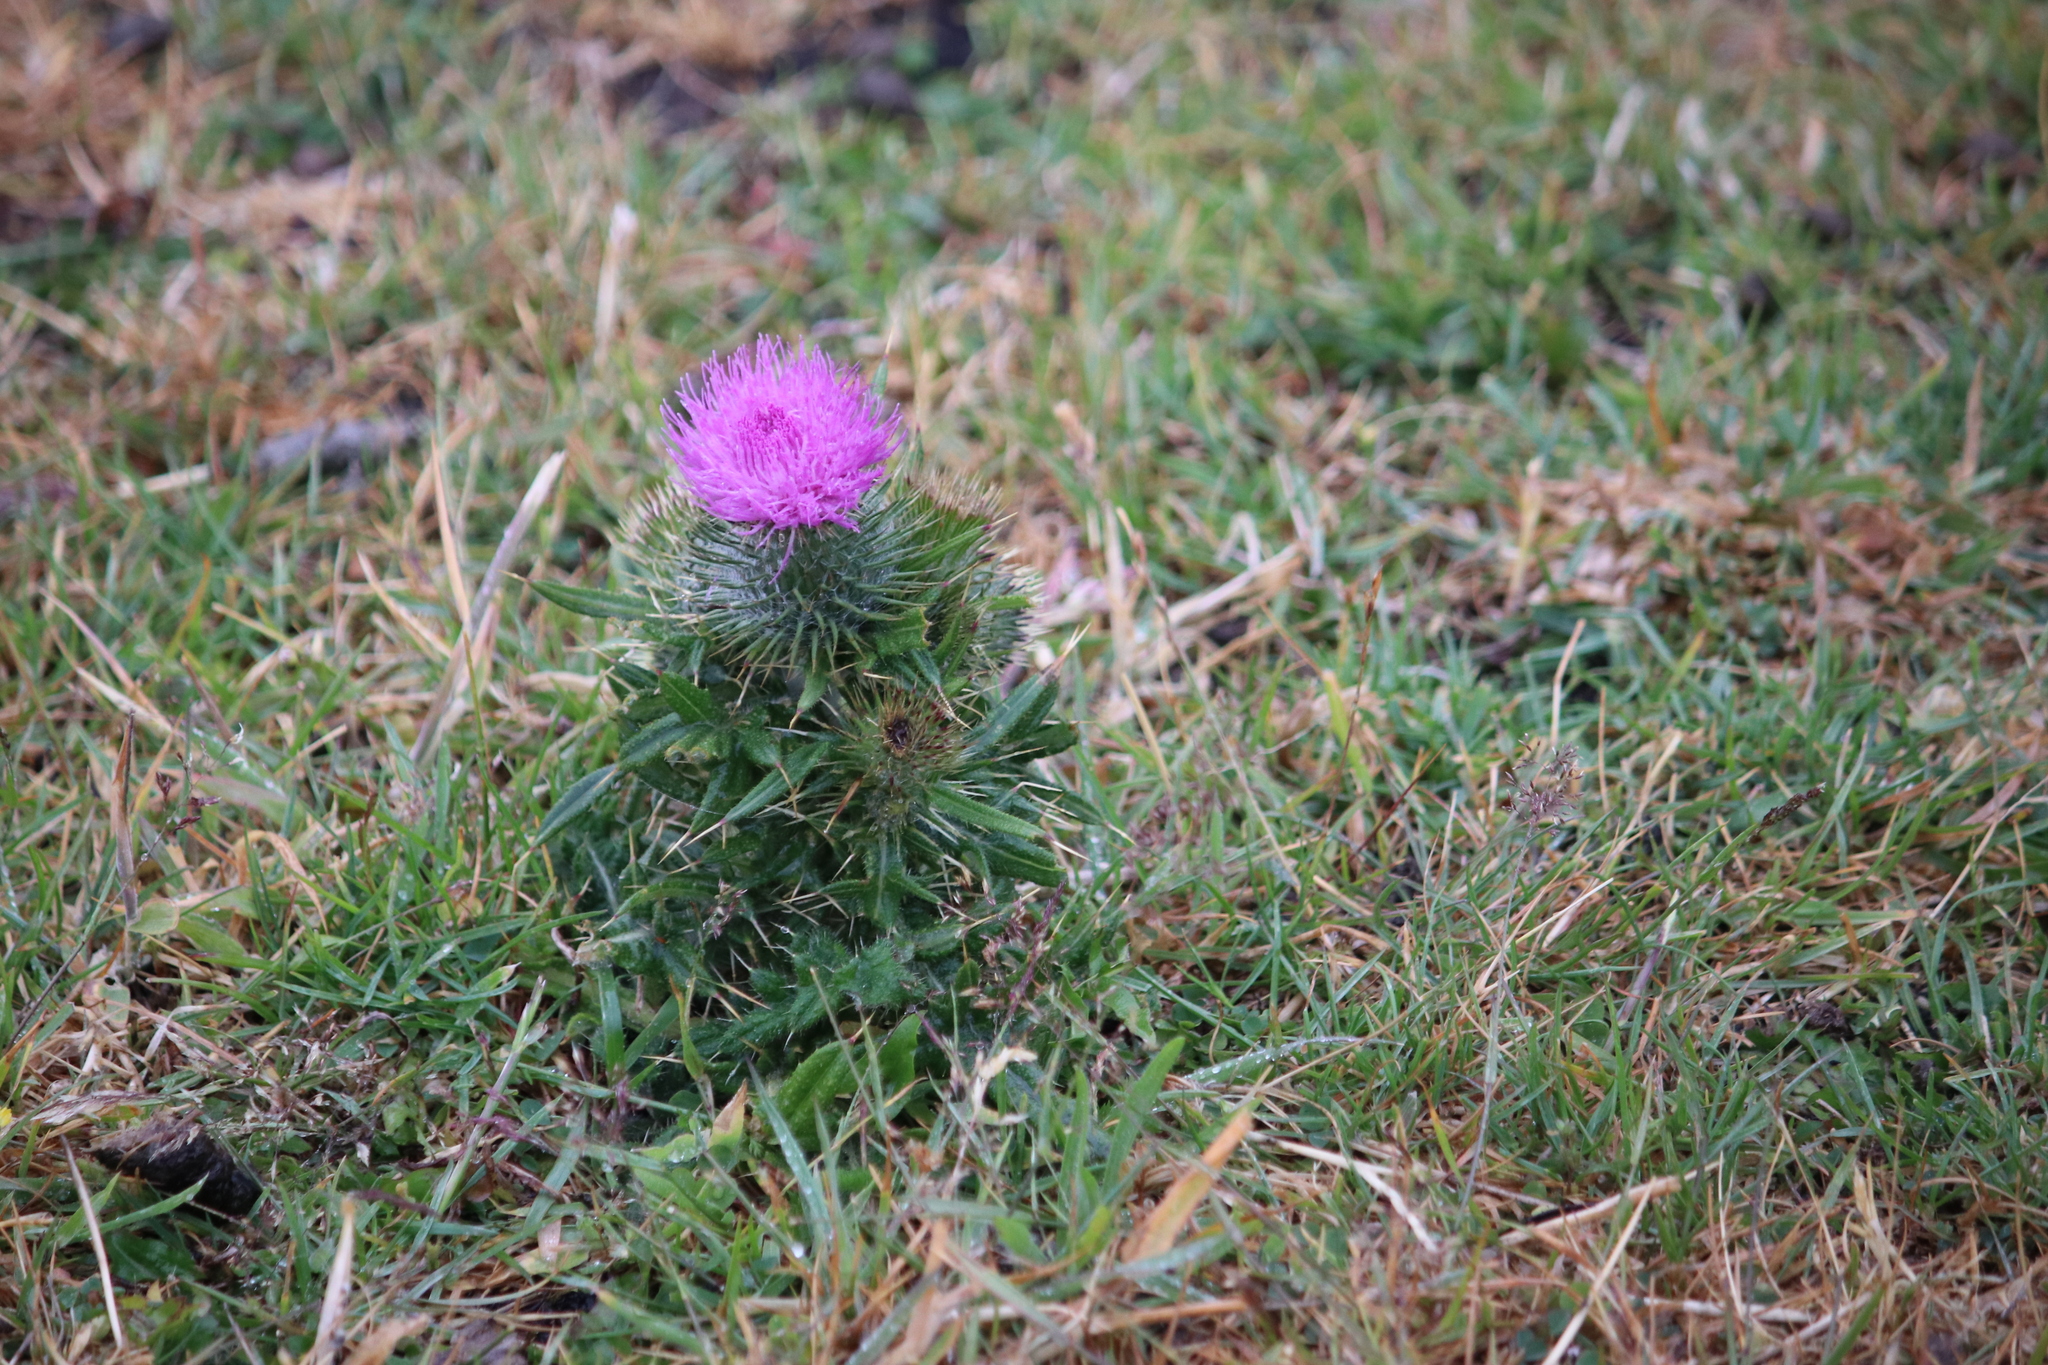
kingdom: Plantae
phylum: Tracheophyta
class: Magnoliopsida
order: Asterales
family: Asteraceae
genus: Cirsium
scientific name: Cirsium vulgare
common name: Bull thistle
